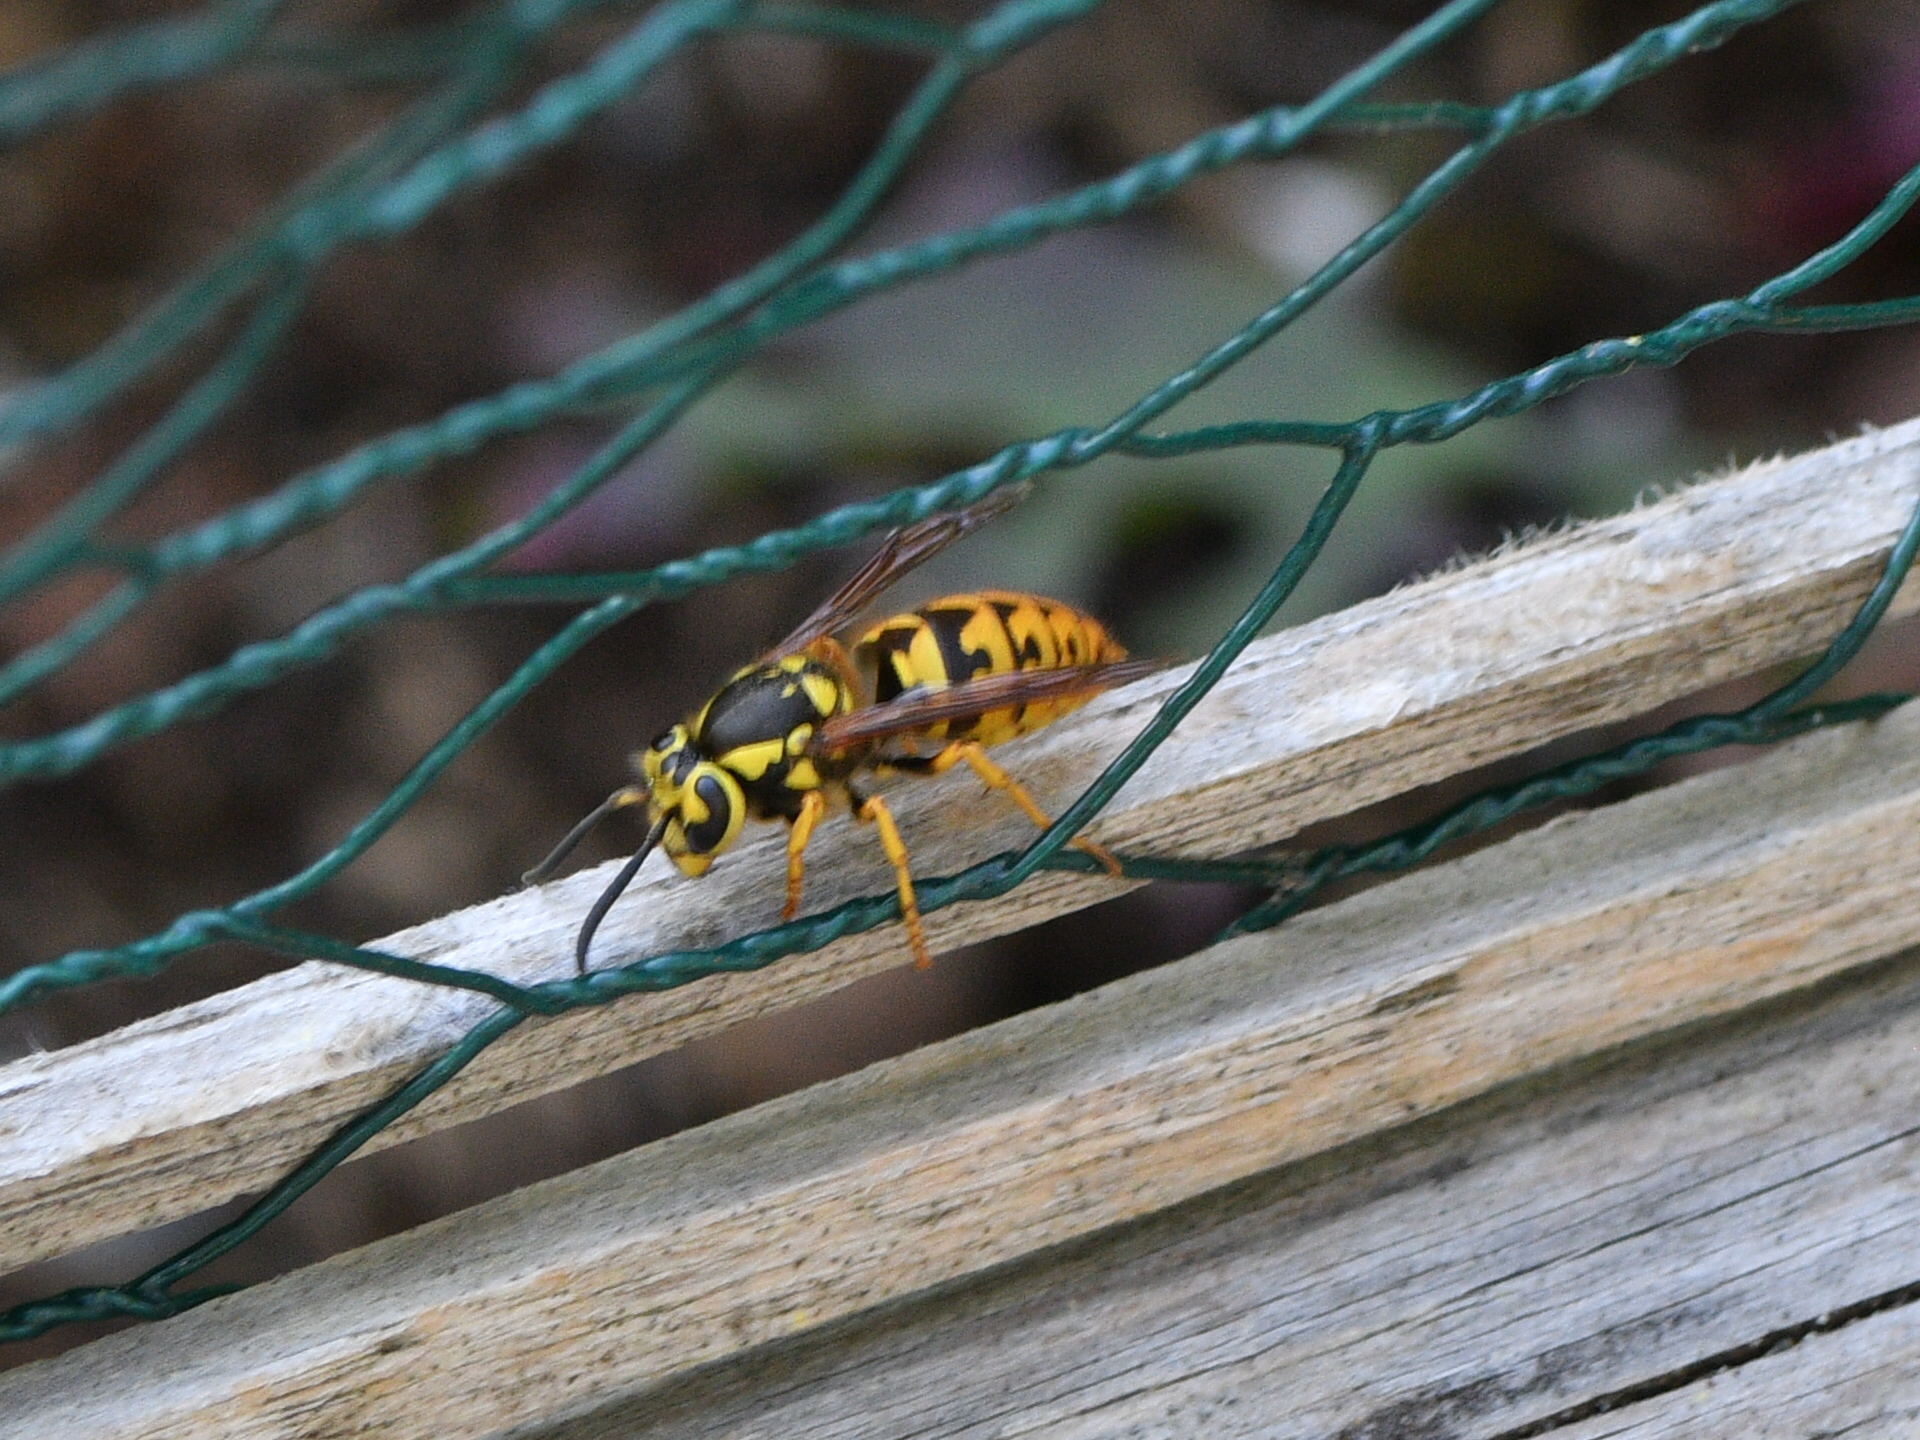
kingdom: Animalia
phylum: Arthropoda
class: Insecta
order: Hymenoptera
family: Vespidae
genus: Vespula
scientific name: Vespula pensylvanica
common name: Western yellowjacket
